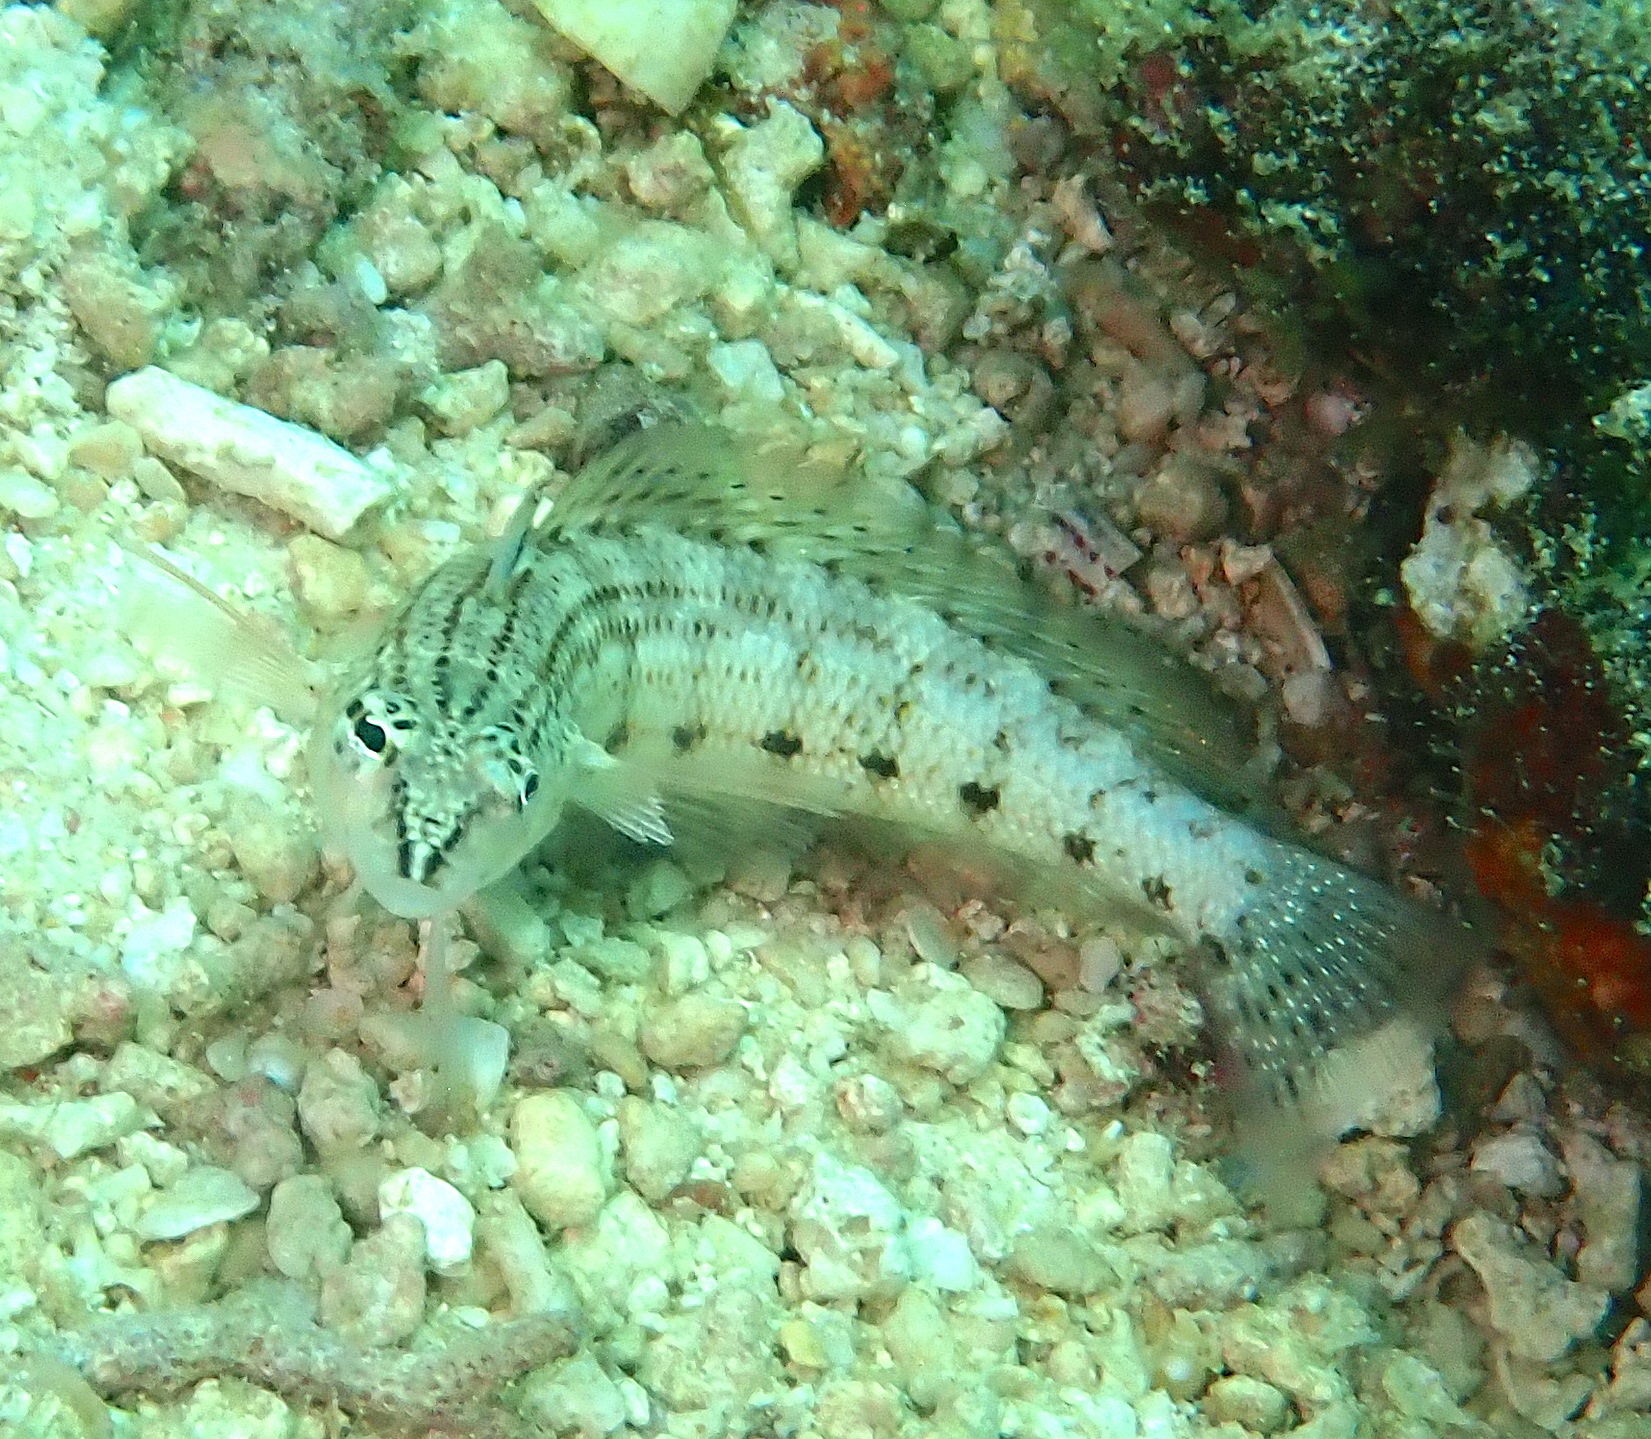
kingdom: Animalia
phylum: Chordata
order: Perciformes
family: Pinguipedidae
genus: Parapercis
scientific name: Parapercis lineopunctata
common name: Nosestripe sandperch
